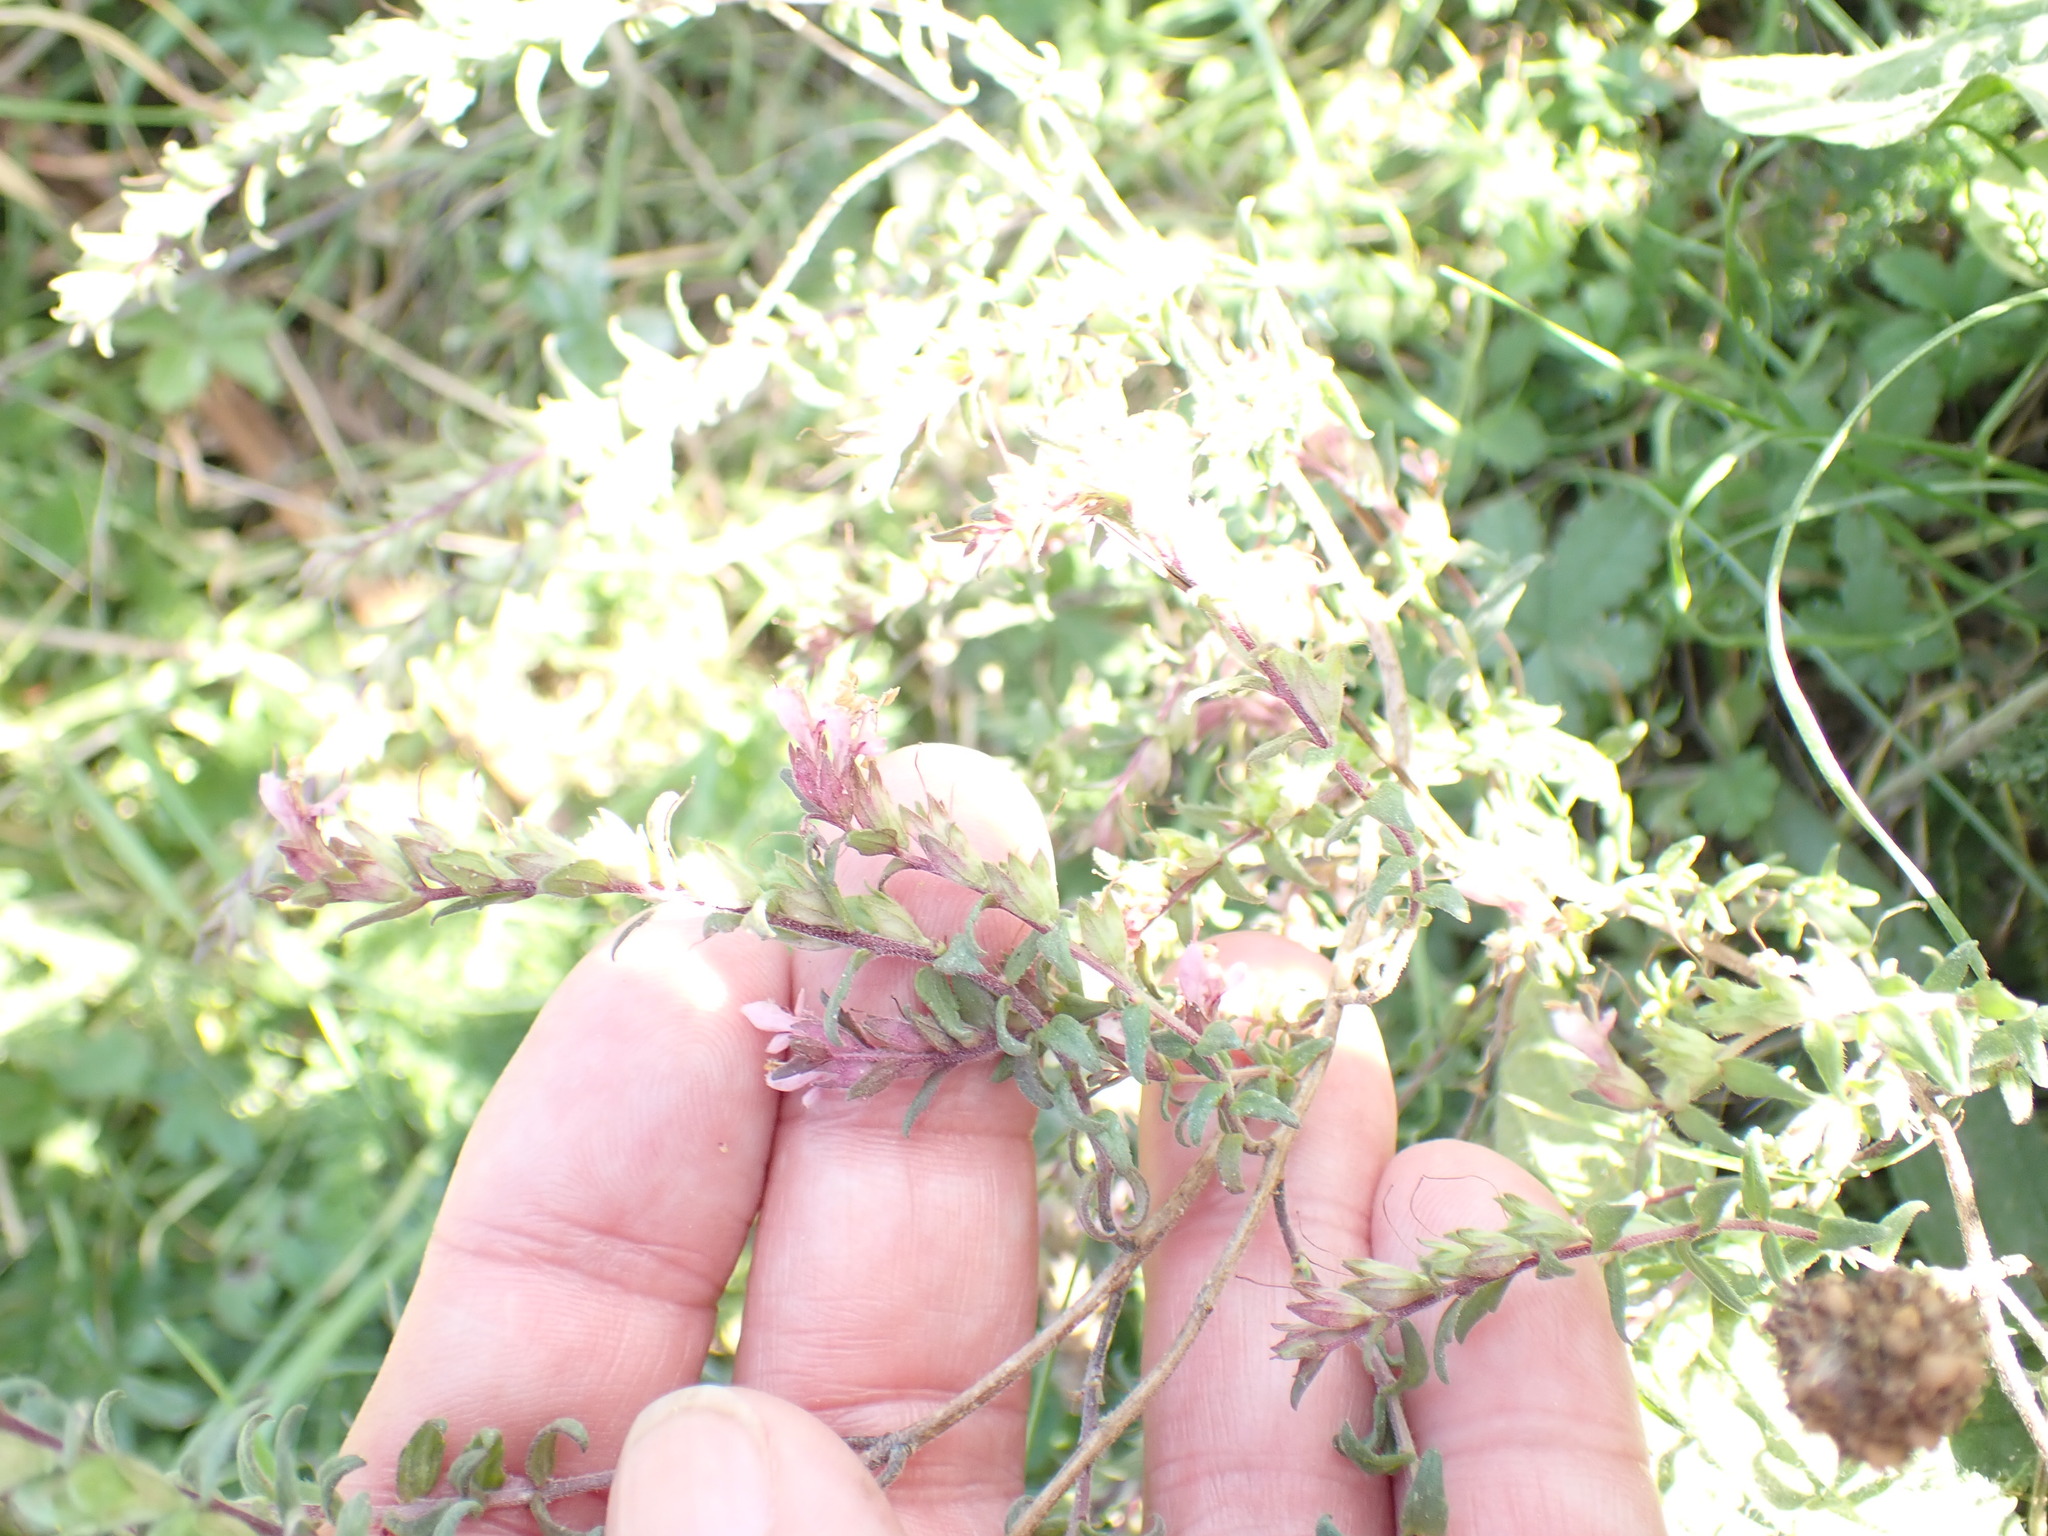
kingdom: Plantae
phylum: Tracheophyta
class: Magnoliopsida
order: Lamiales
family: Orobanchaceae
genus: Odontites
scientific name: Odontites vulgaris
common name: Broomrape
